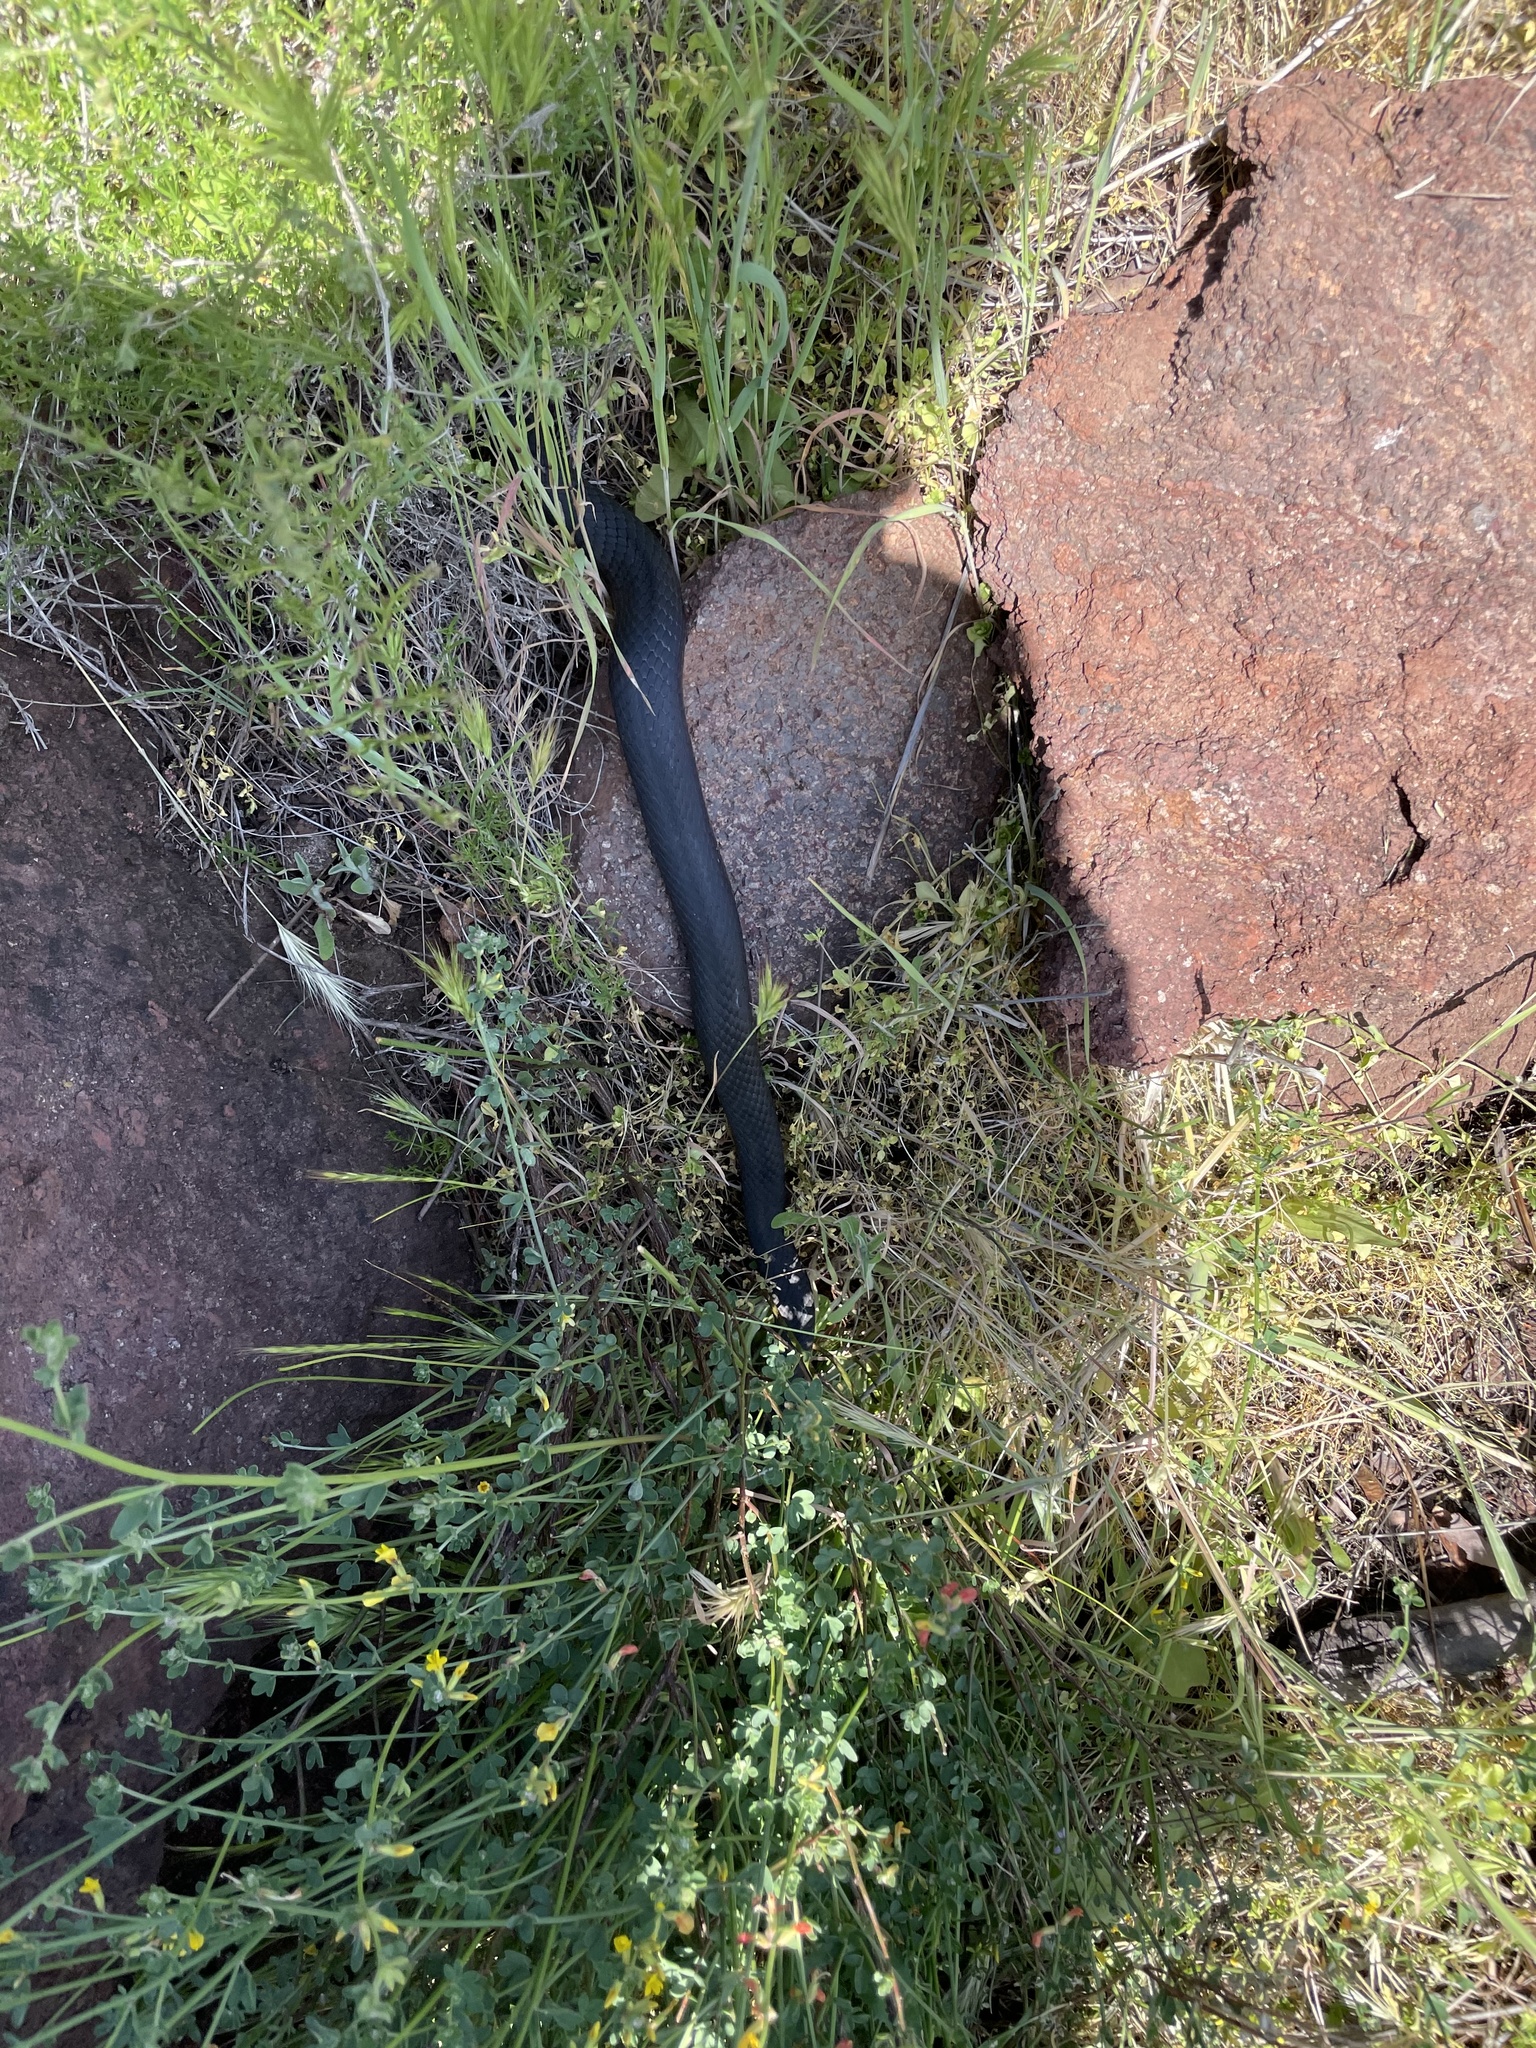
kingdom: Animalia
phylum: Chordata
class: Squamata
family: Colubridae
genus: Masticophis
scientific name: Masticophis fuliginosus
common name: Baja california coachwhip
